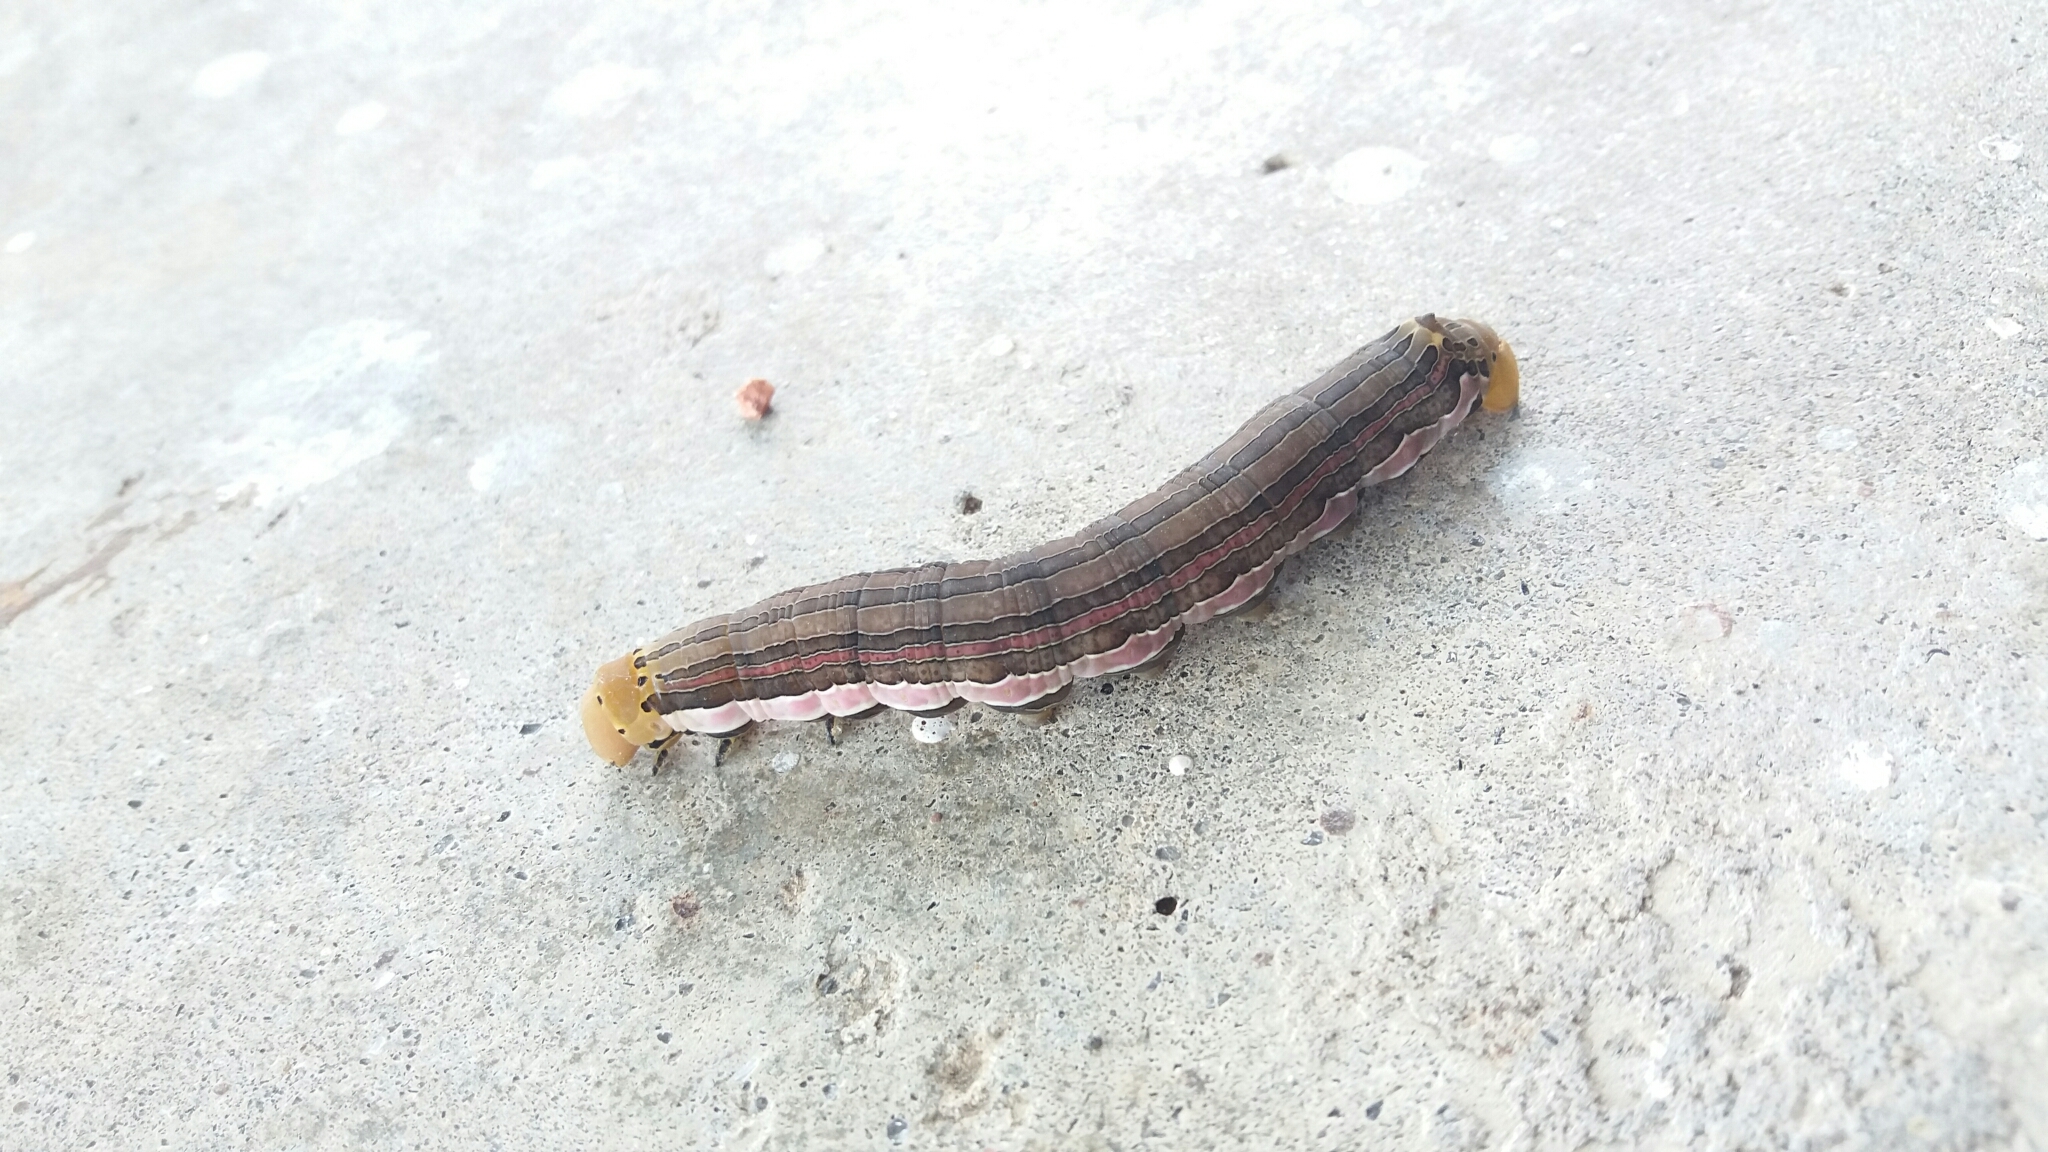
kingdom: Animalia
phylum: Arthropoda
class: Insecta
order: Lepidoptera
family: Sphingidae
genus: Isognathus
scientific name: Isognathus scyron
